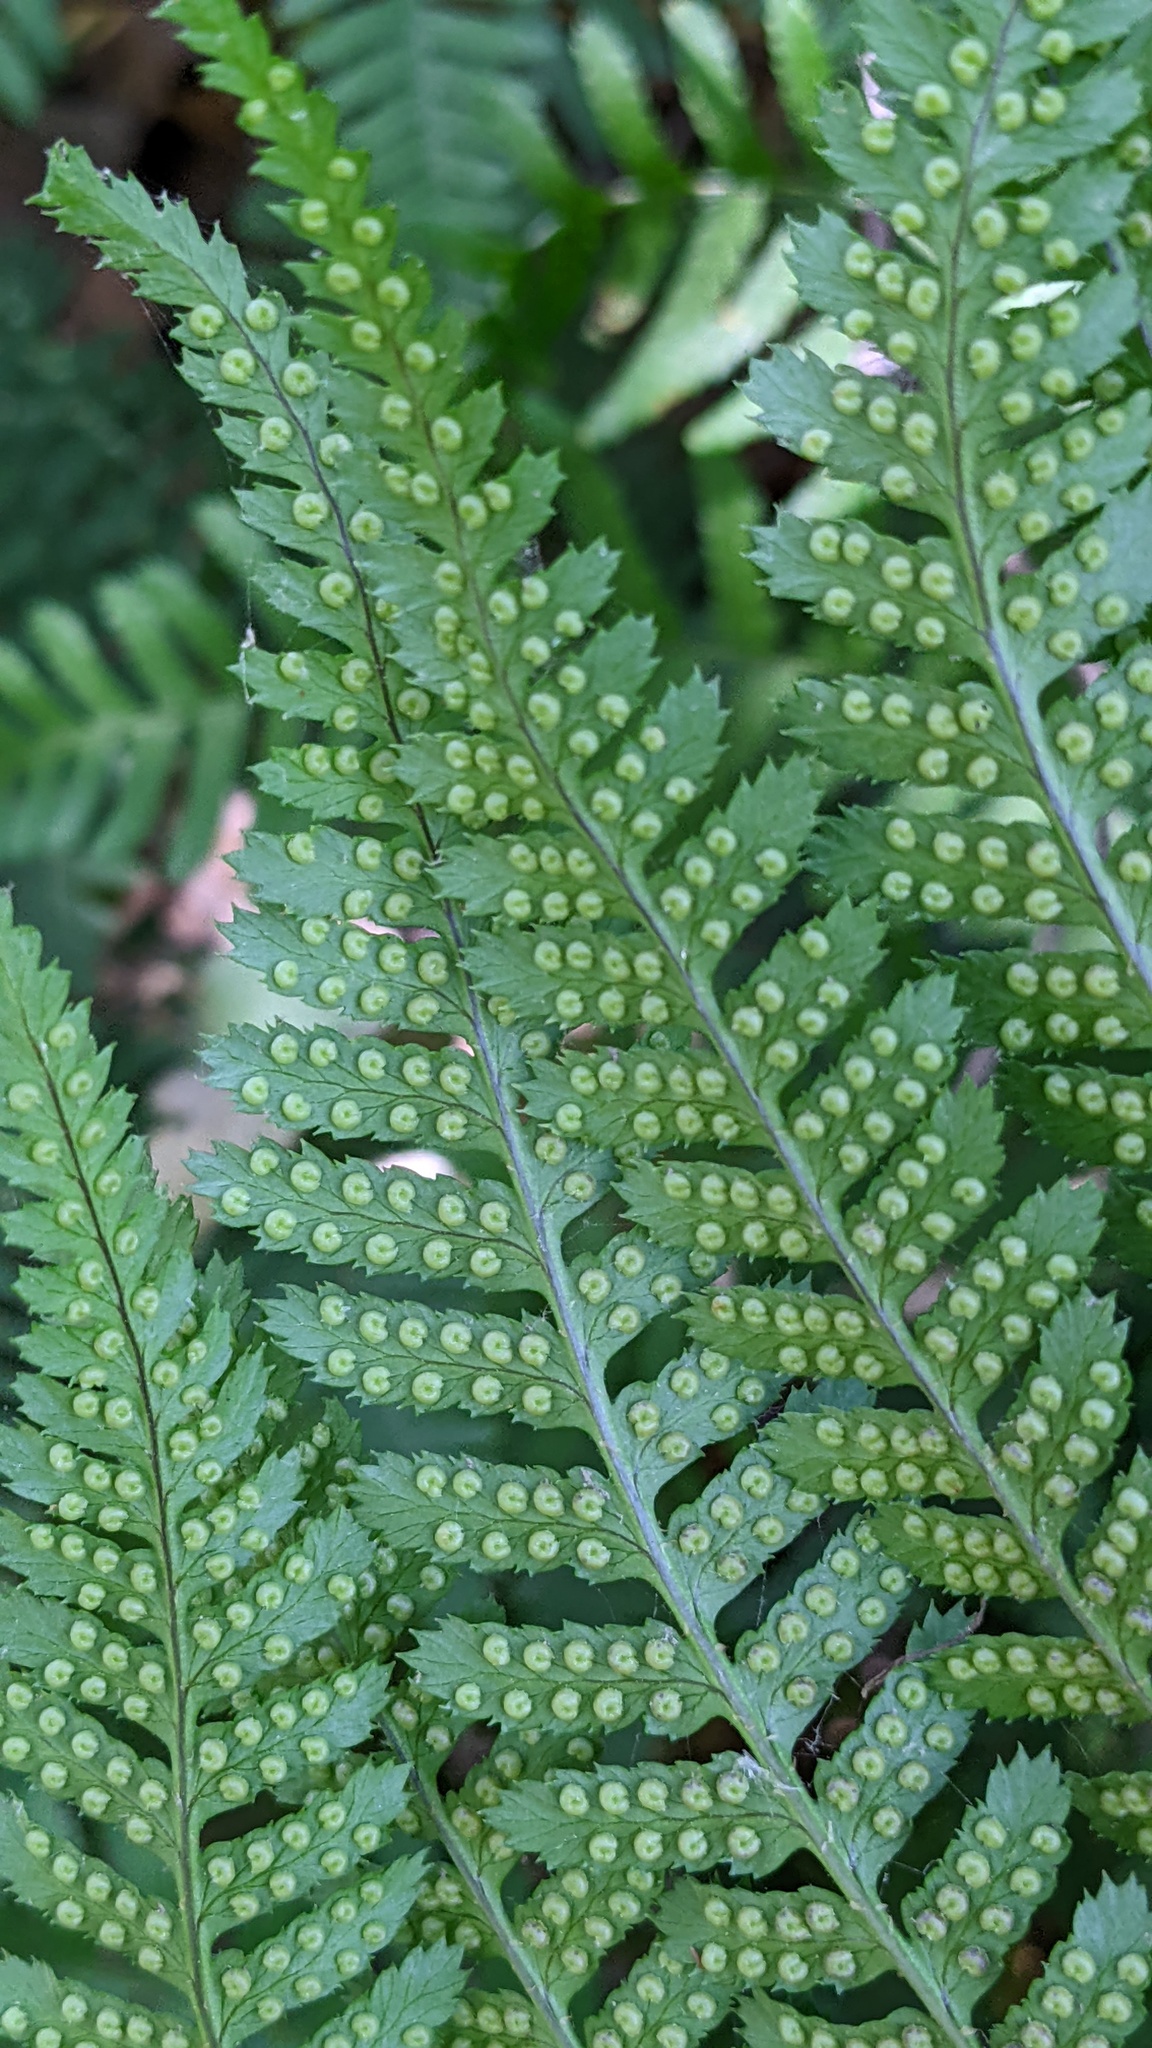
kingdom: Plantae
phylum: Tracheophyta
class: Polypodiopsida
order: Polypodiales
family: Dryopteridaceae
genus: Dryopteris
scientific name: Dryopteris arguta
